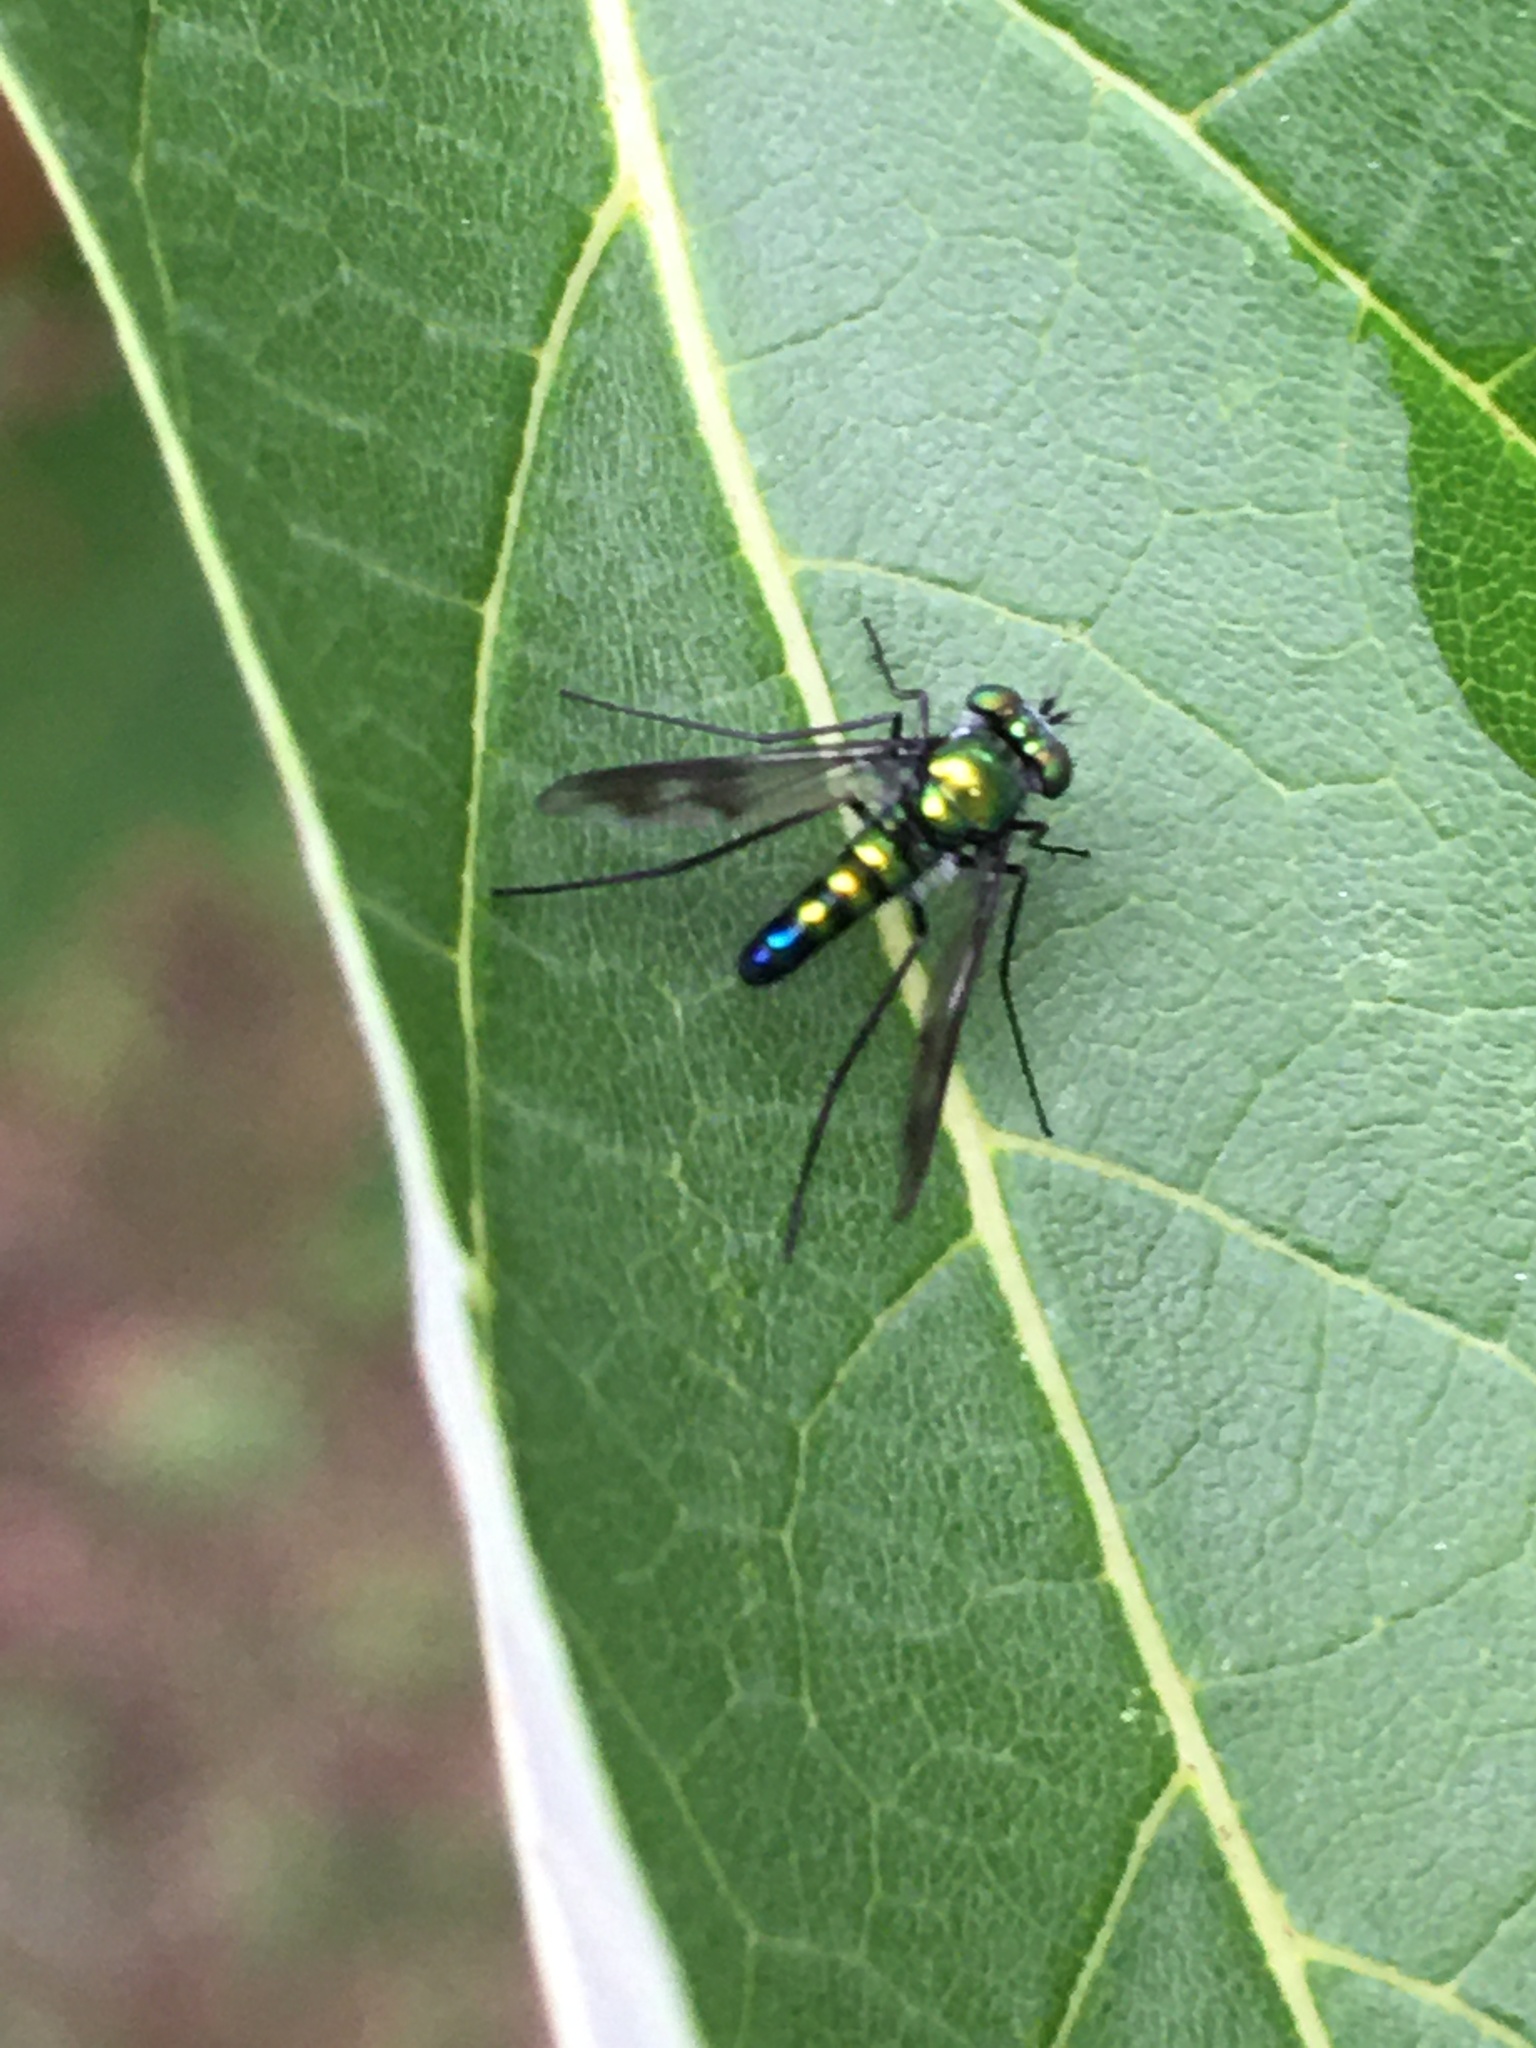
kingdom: Animalia
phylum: Arthropoda
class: Insecta
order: Diptera
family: Dolichopodidae
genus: Condylostylus
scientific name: Condylostylus patibulatus
